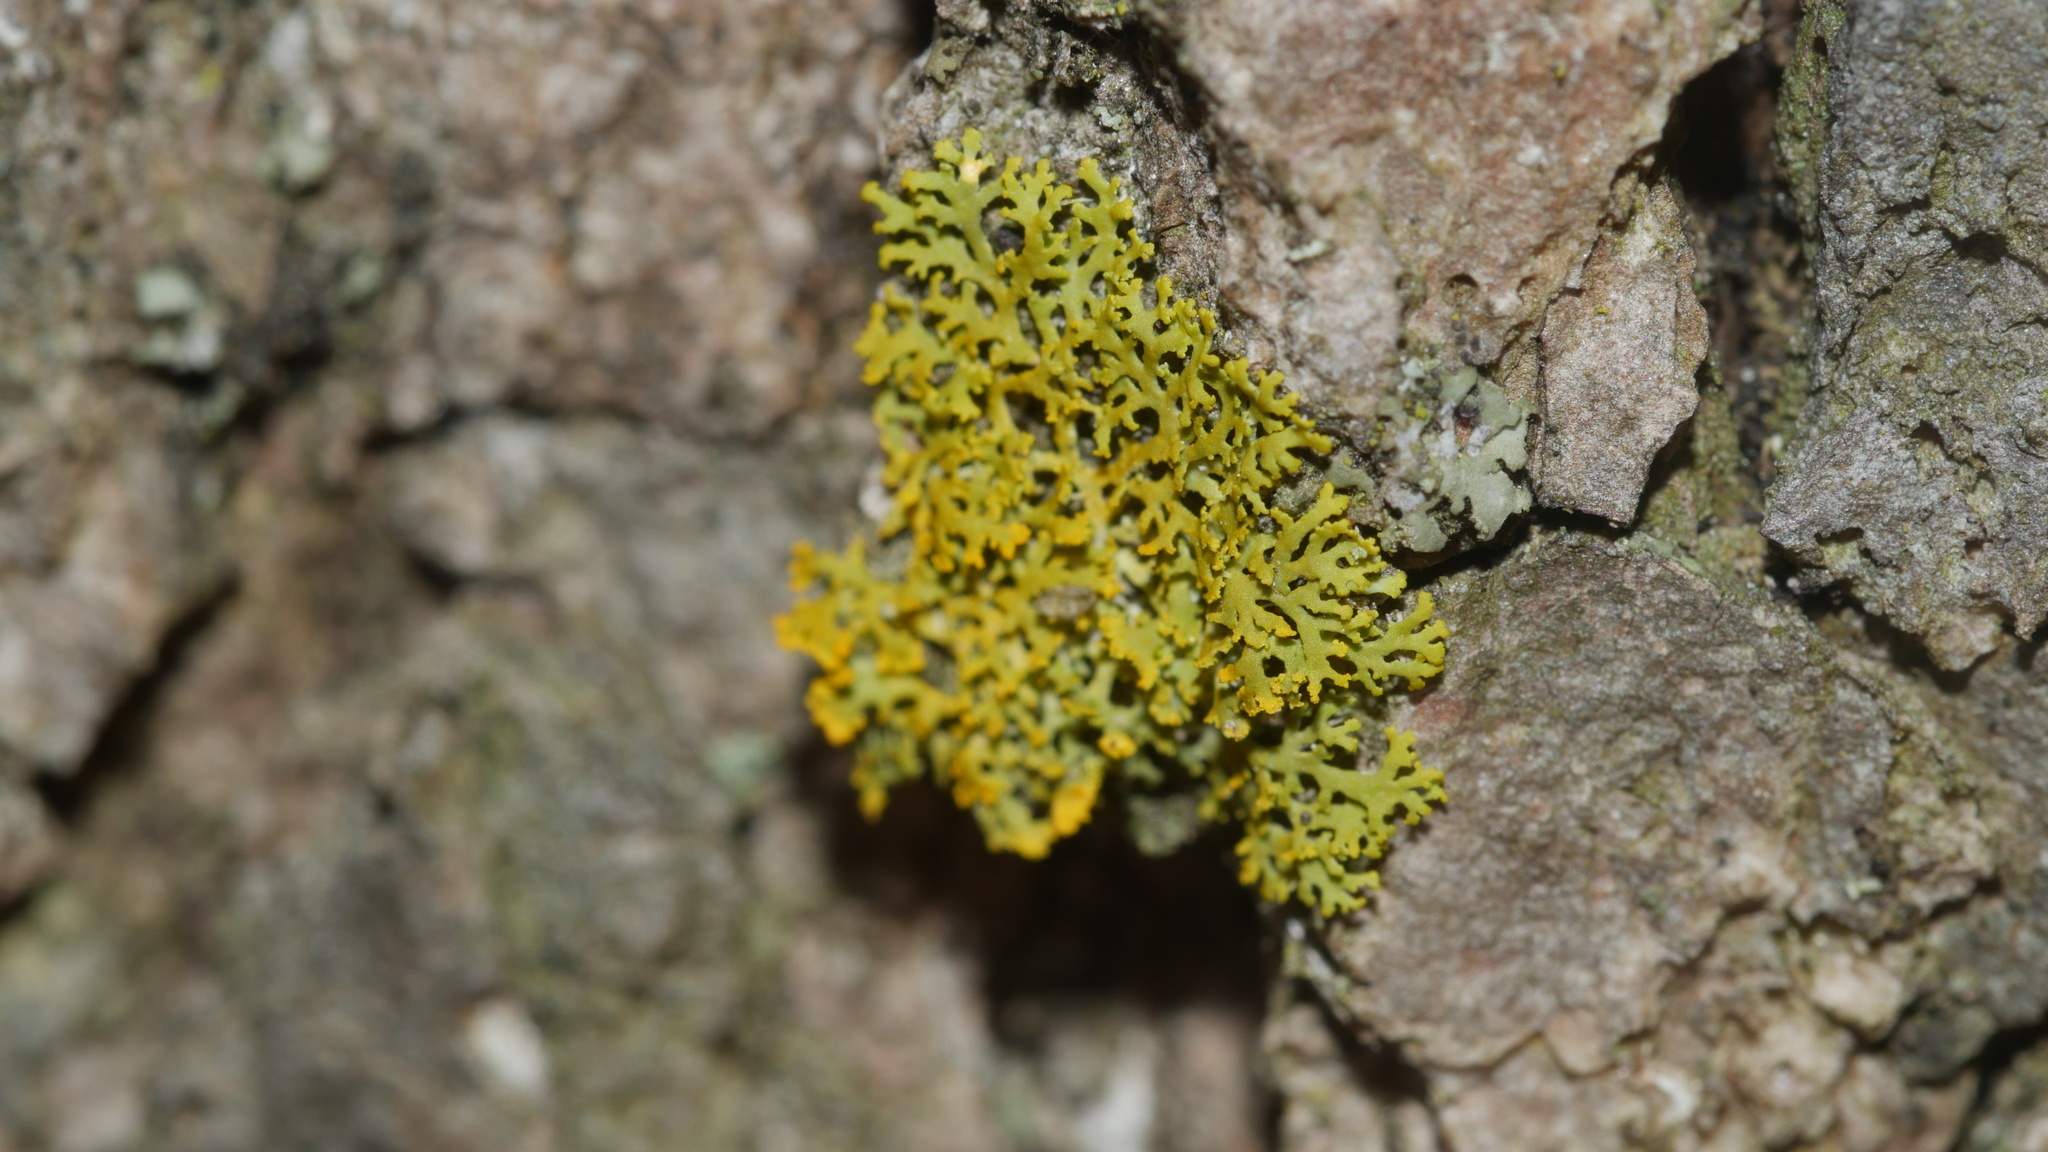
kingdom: Fungi
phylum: Ascomycota
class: Candelariomycetes
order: Candelariales
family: Candelariaceae
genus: Candelaria
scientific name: Candelaria concolor
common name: Candleflame lichen
